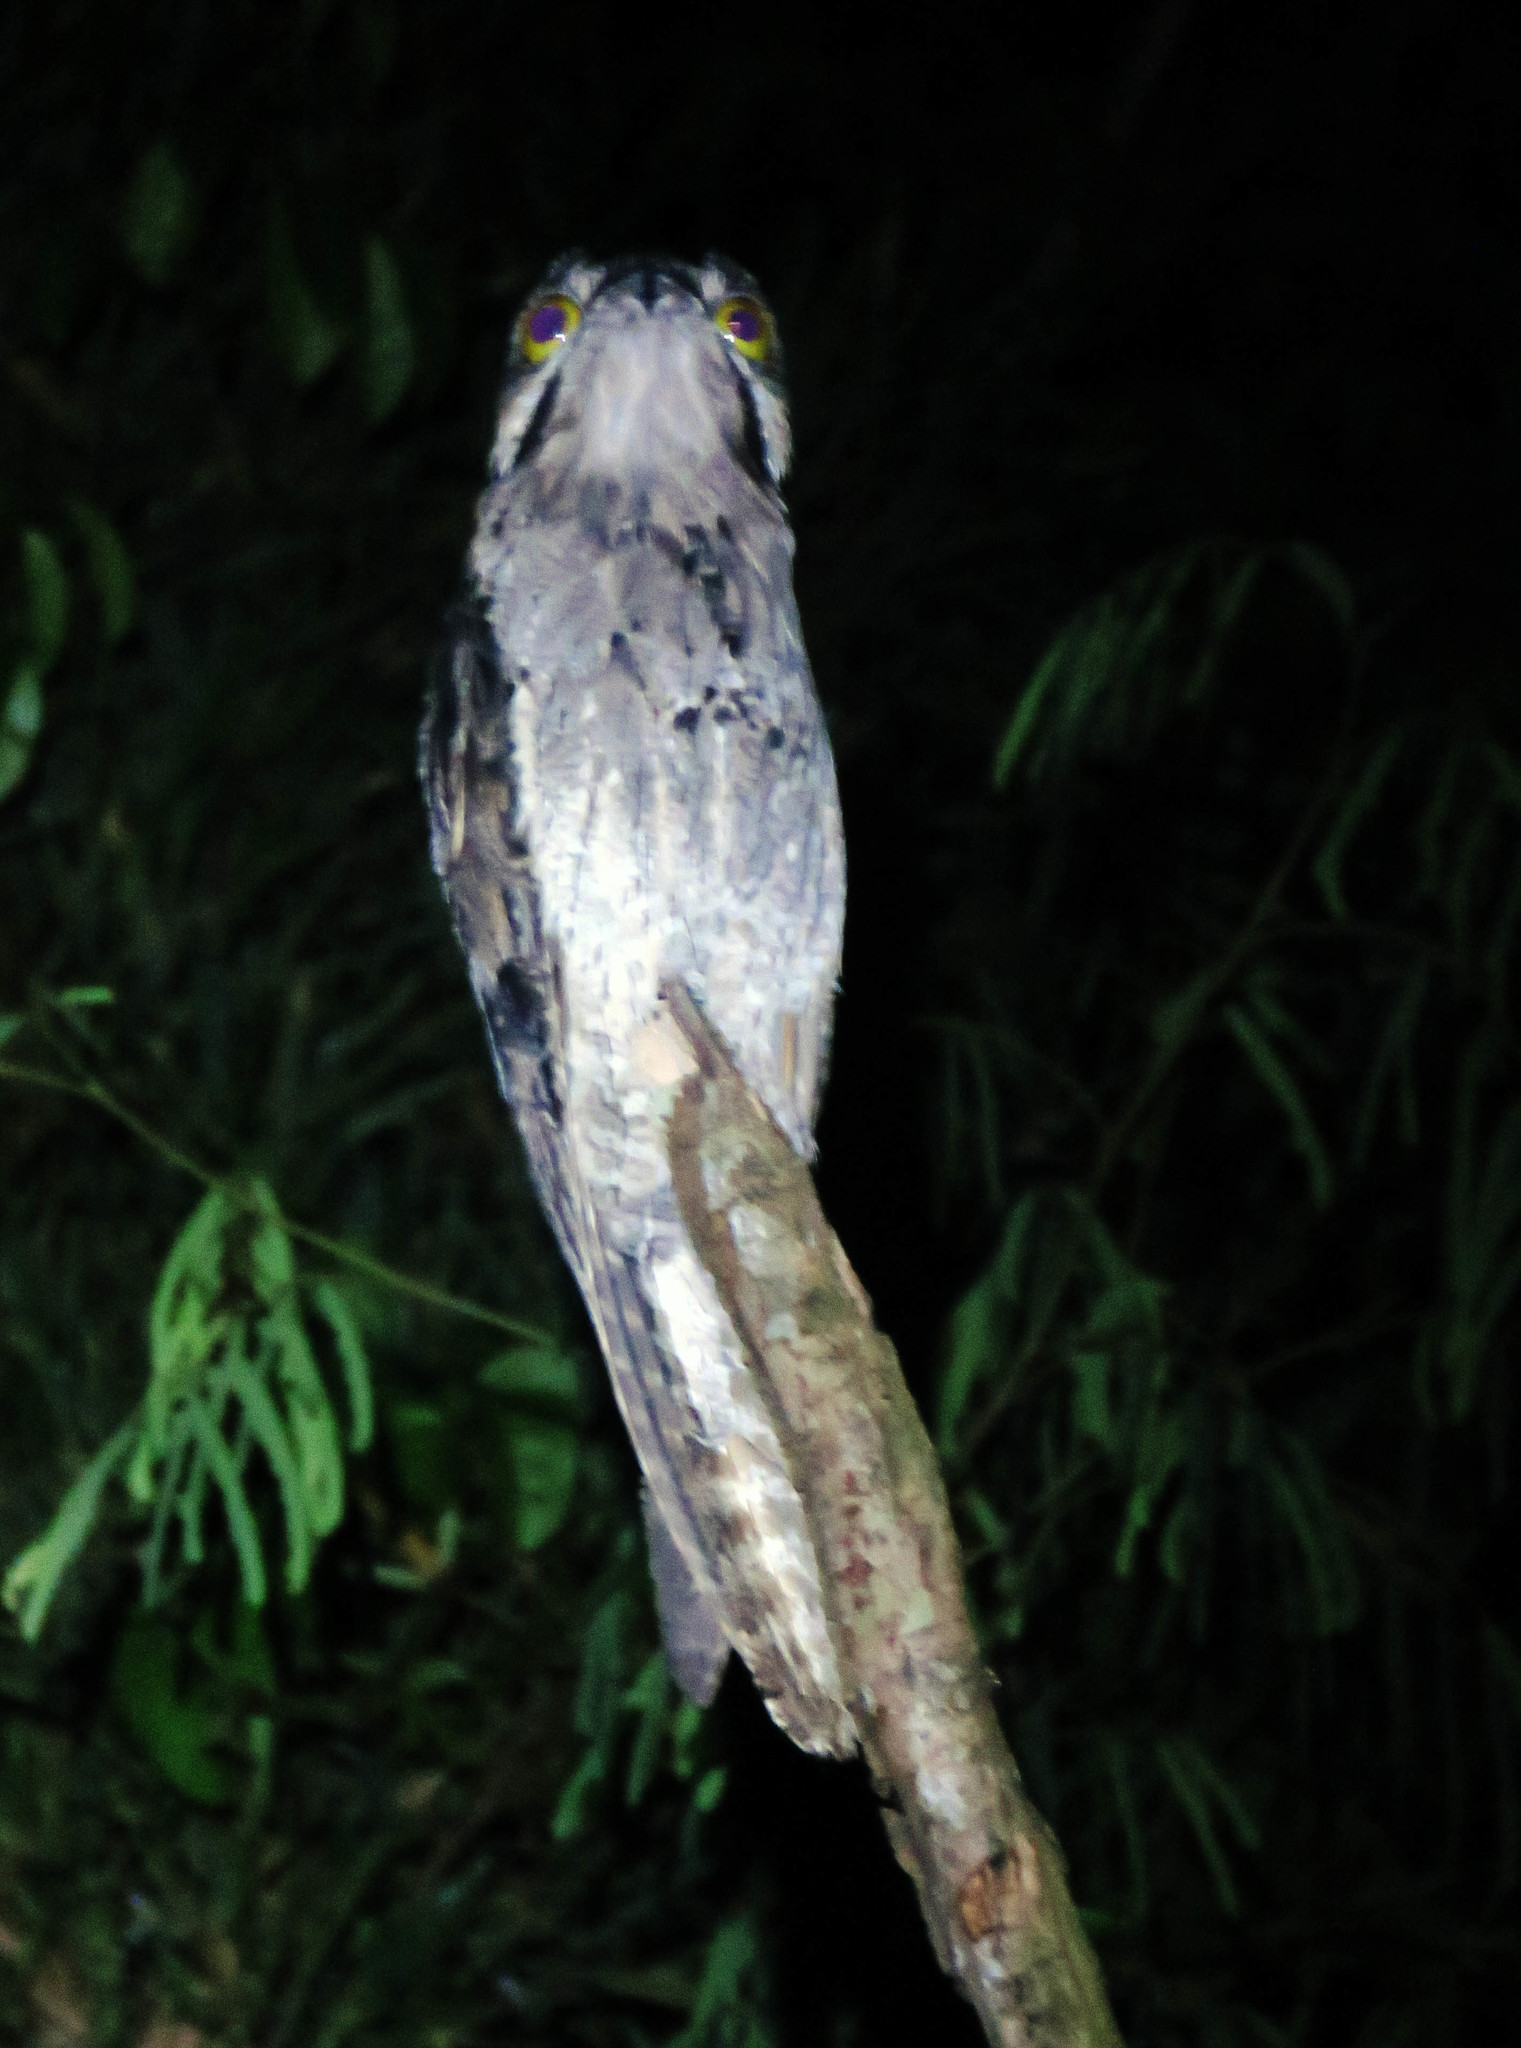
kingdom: Animalia
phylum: Chordata
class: Aves
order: Nyctibiiformes
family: Nyctibiidae
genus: Nyctibius
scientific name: Nyctibius griseus
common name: Common potoo
